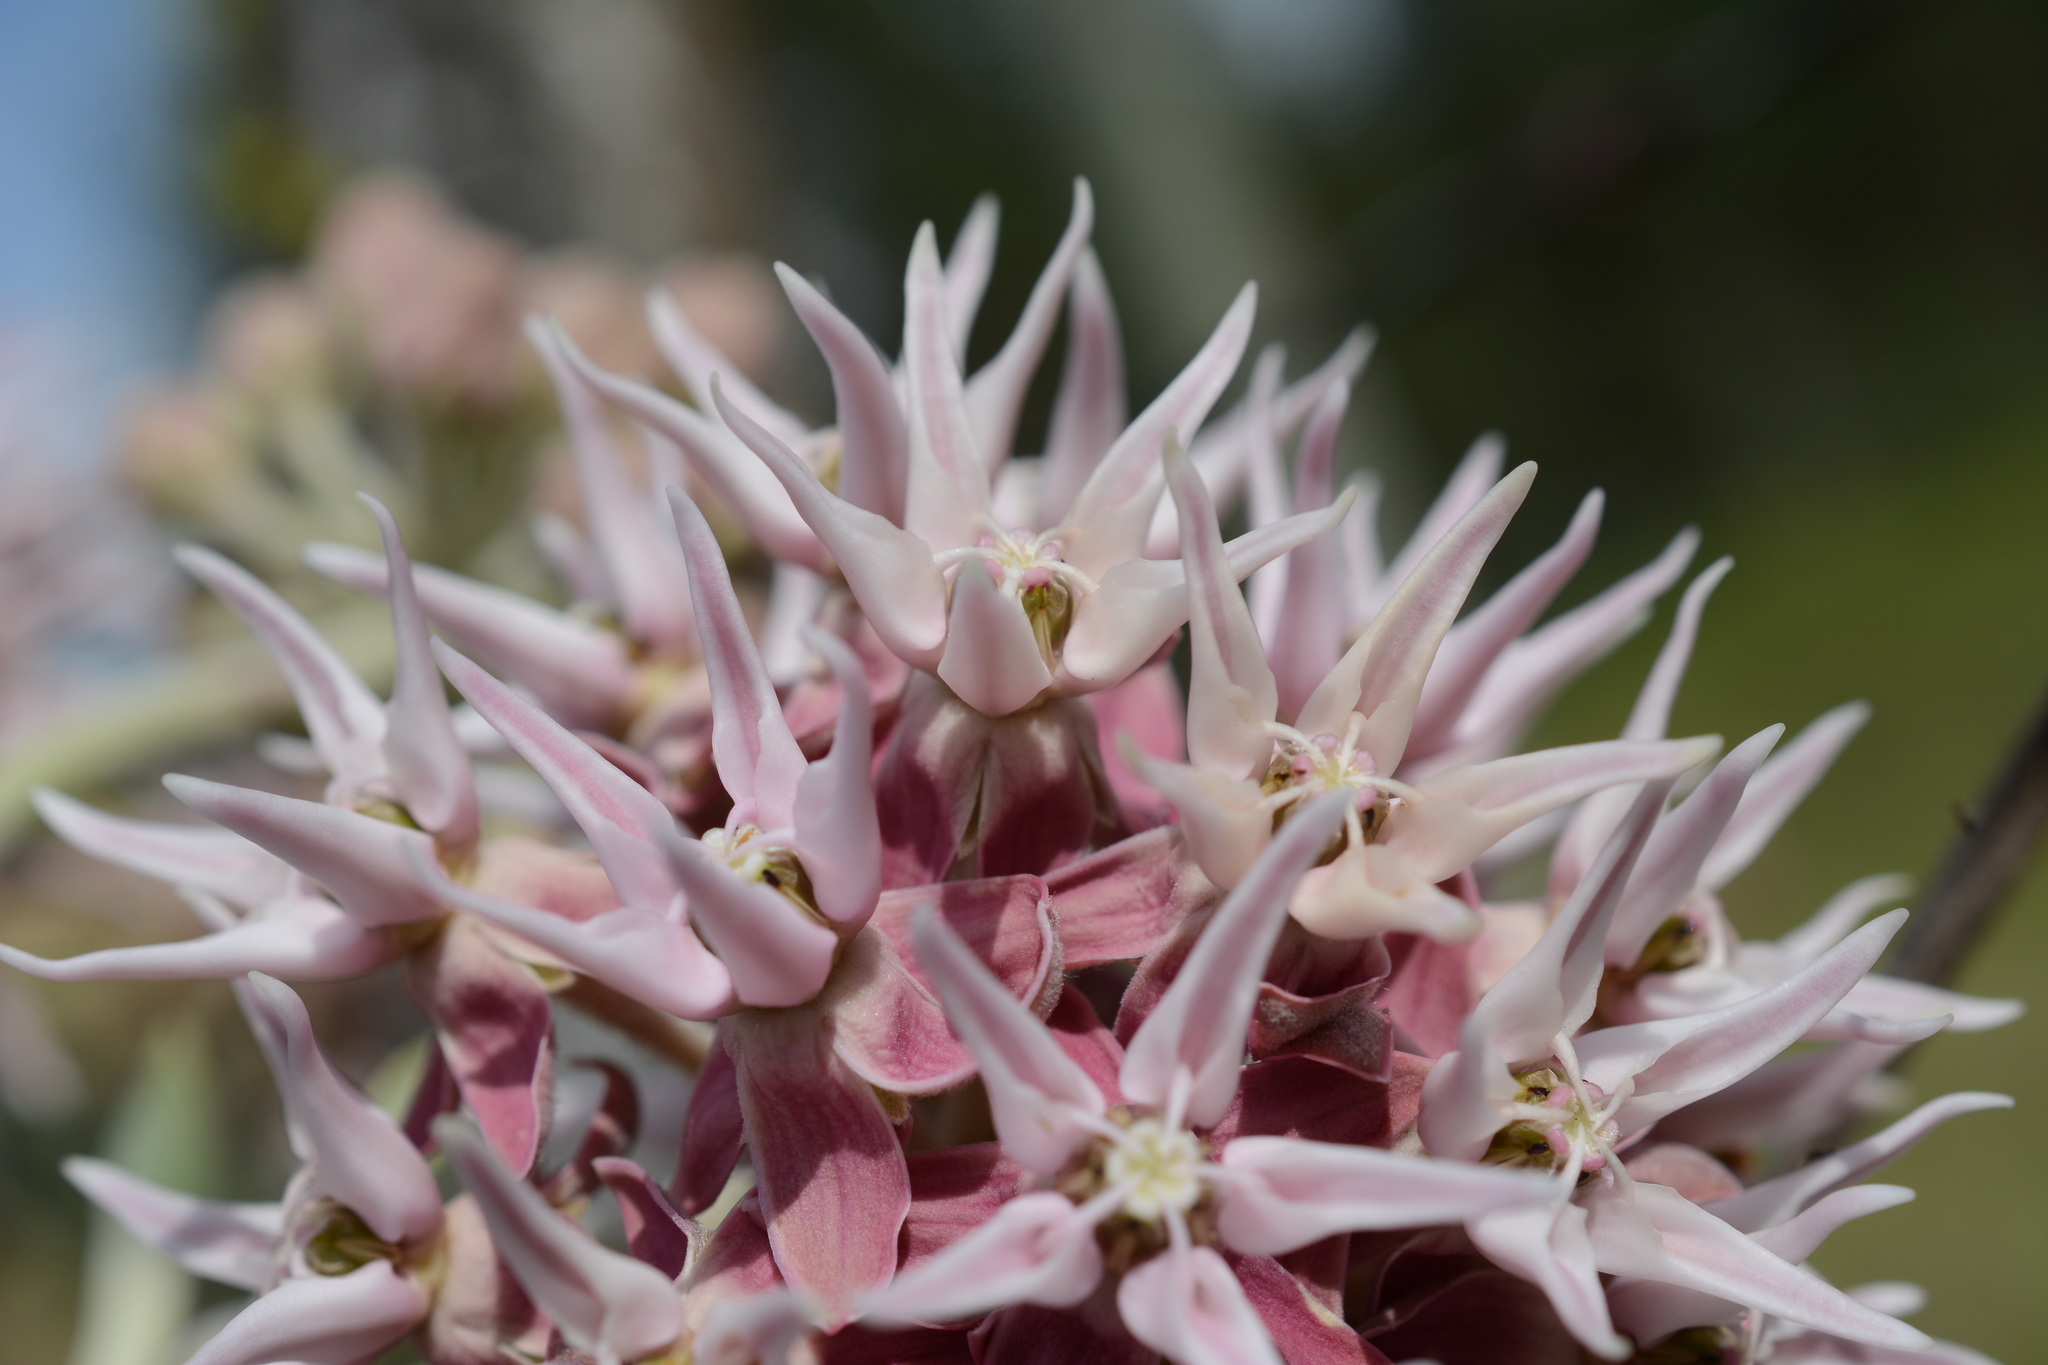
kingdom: Plantae
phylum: Tracheophyta
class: Magnoliopsida
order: Gentianales
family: Apocynaceae
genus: Asclepias
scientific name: Asclepias speciosa
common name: Showy milkweed
